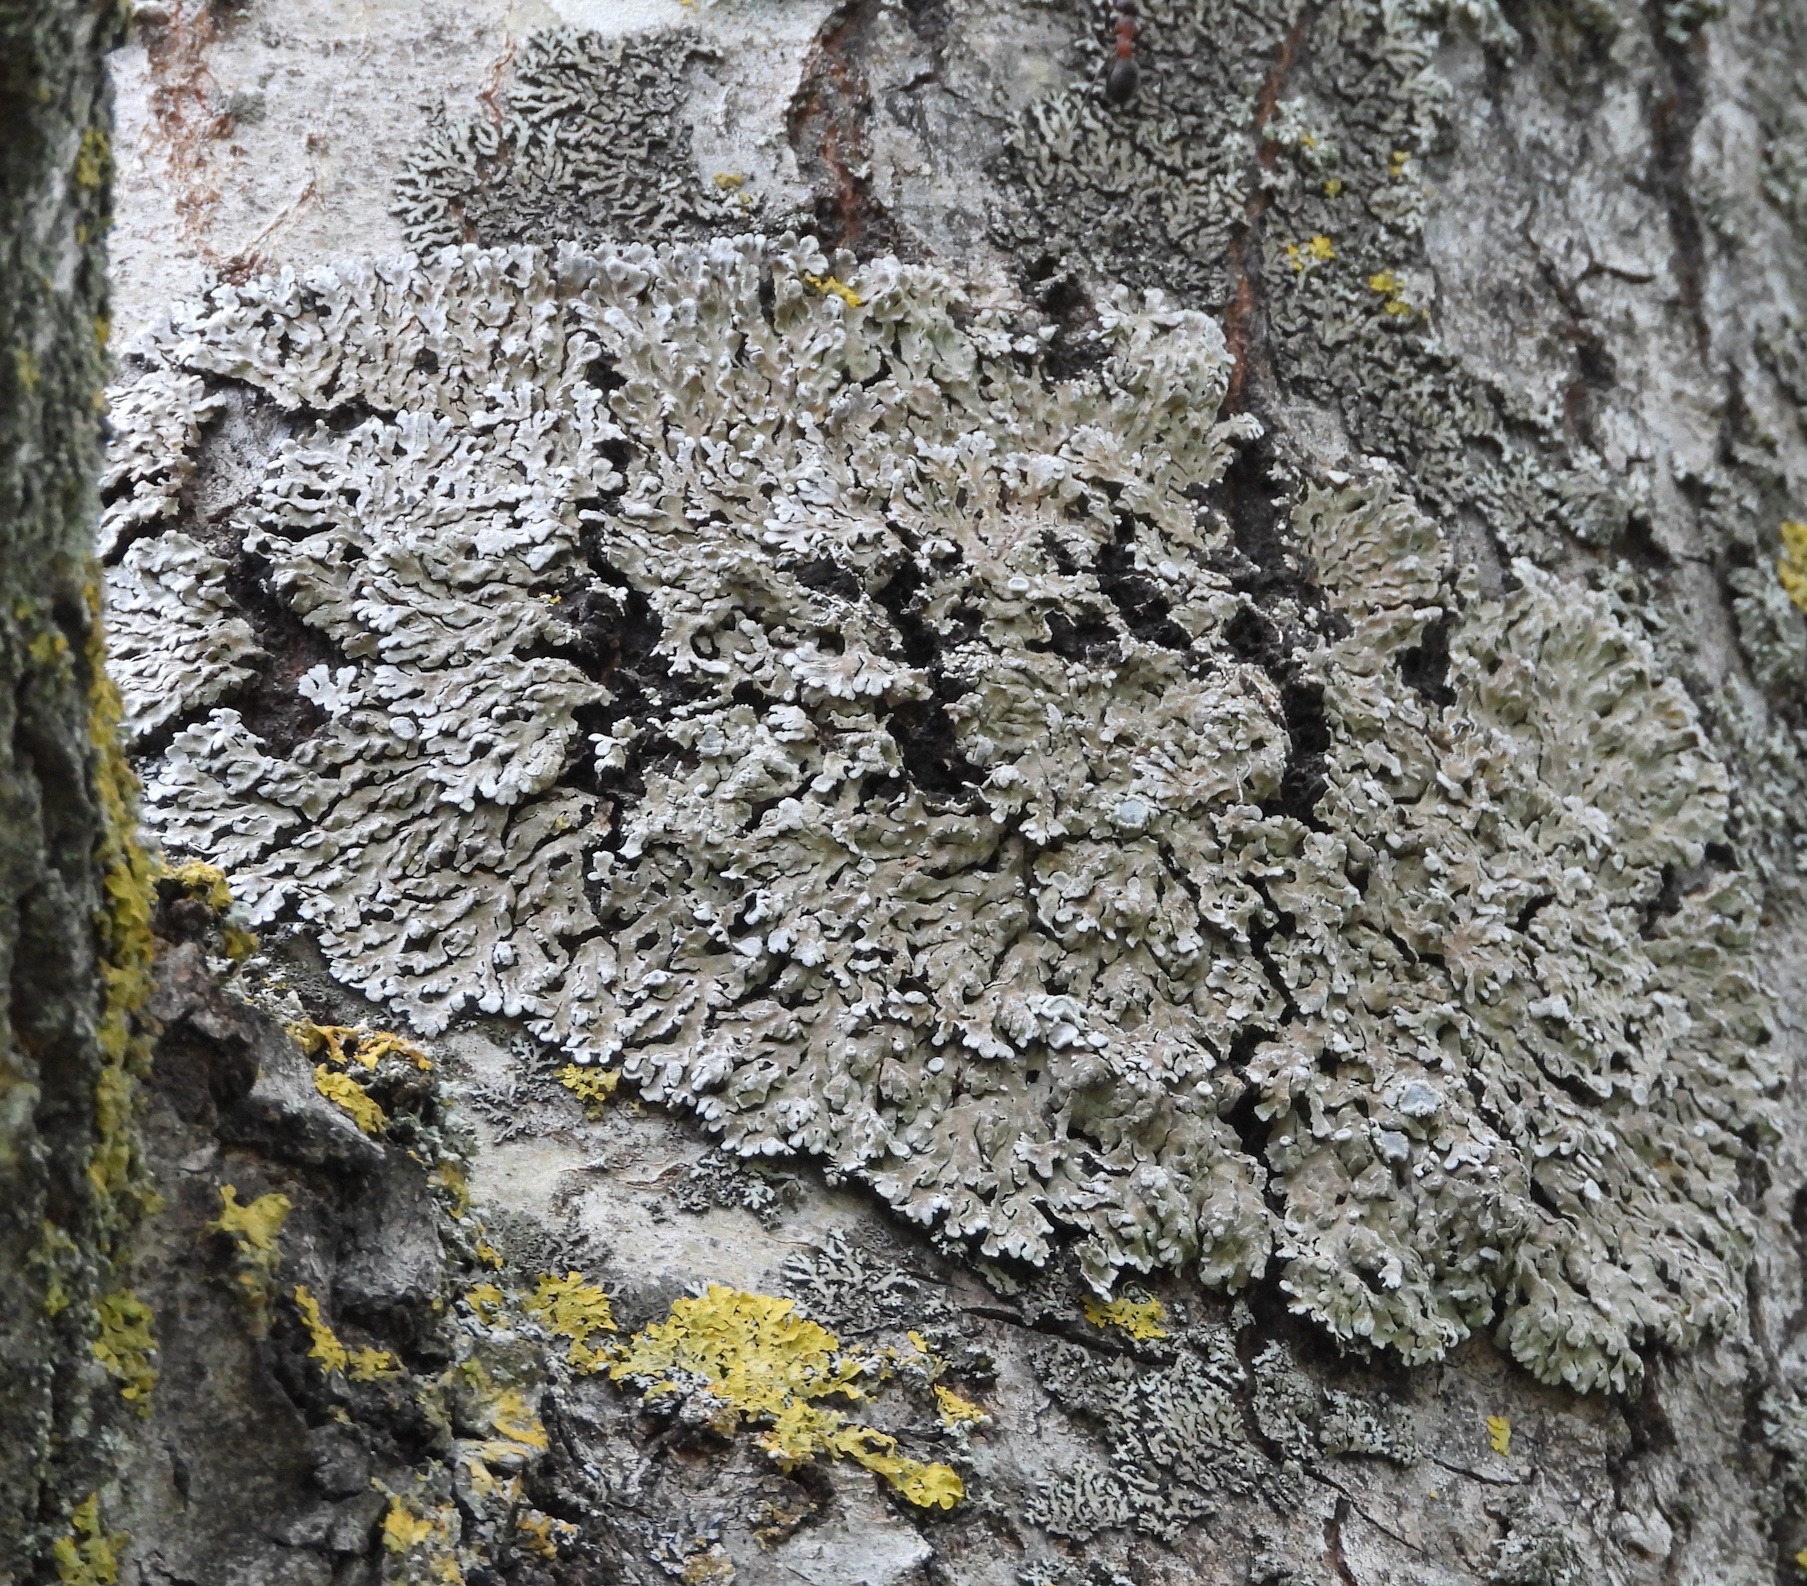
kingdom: Fungi
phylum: Ascomycota
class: Lecanoromycetes
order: Caliciales
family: Physciaceae
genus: Physconia
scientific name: Physconia distorta
